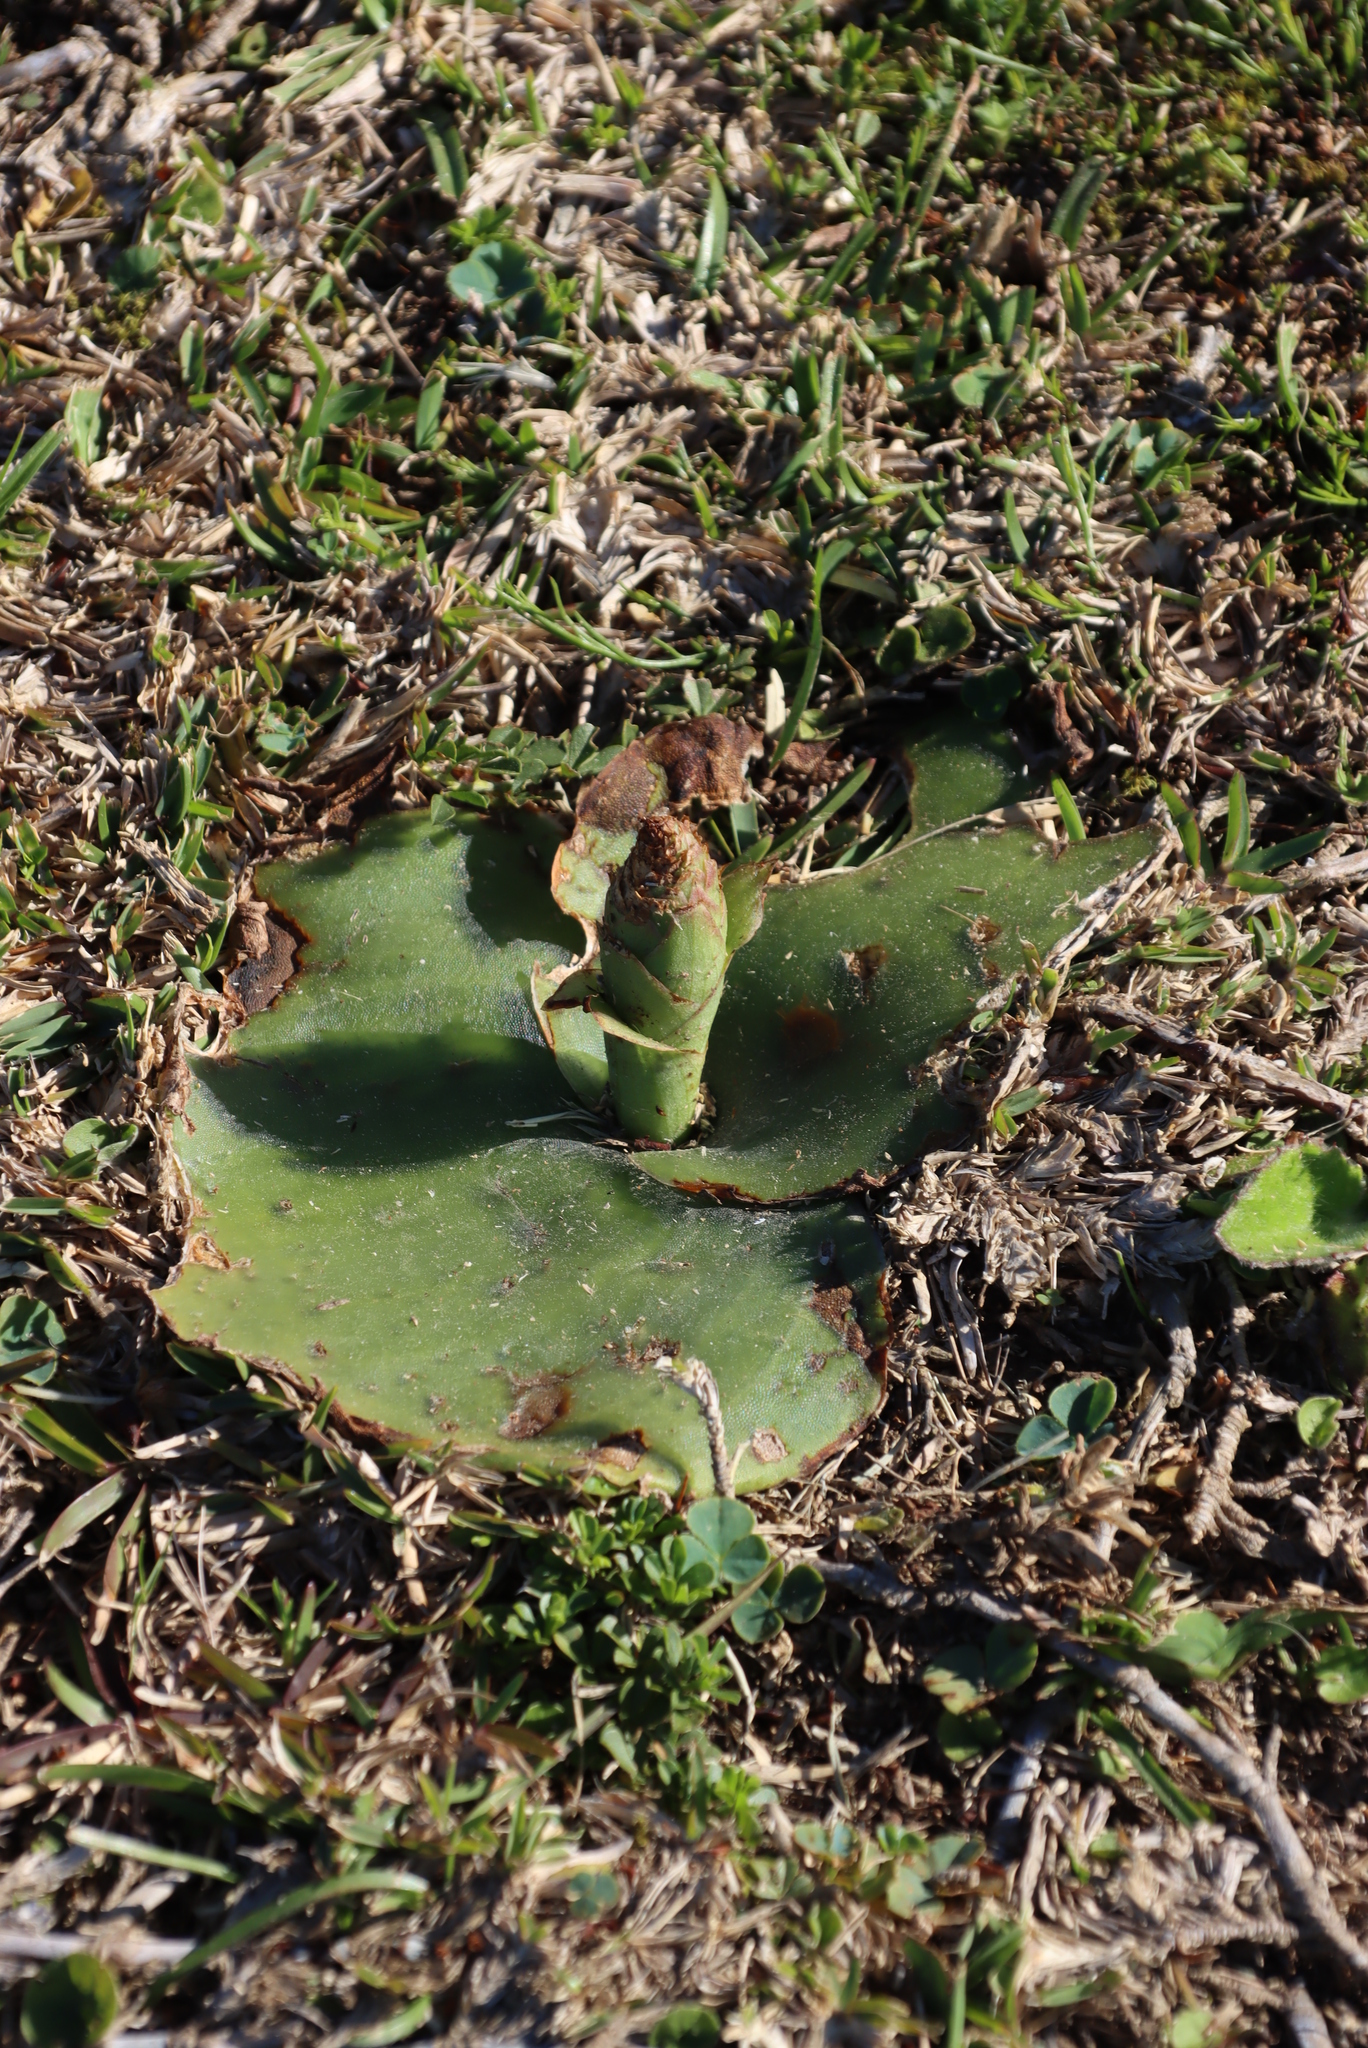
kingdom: Plantae
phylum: Tracheophyta
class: Liliopsida
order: Asparagales
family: Orchidaceae
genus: Satyrium
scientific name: Satyrium membranaceum
